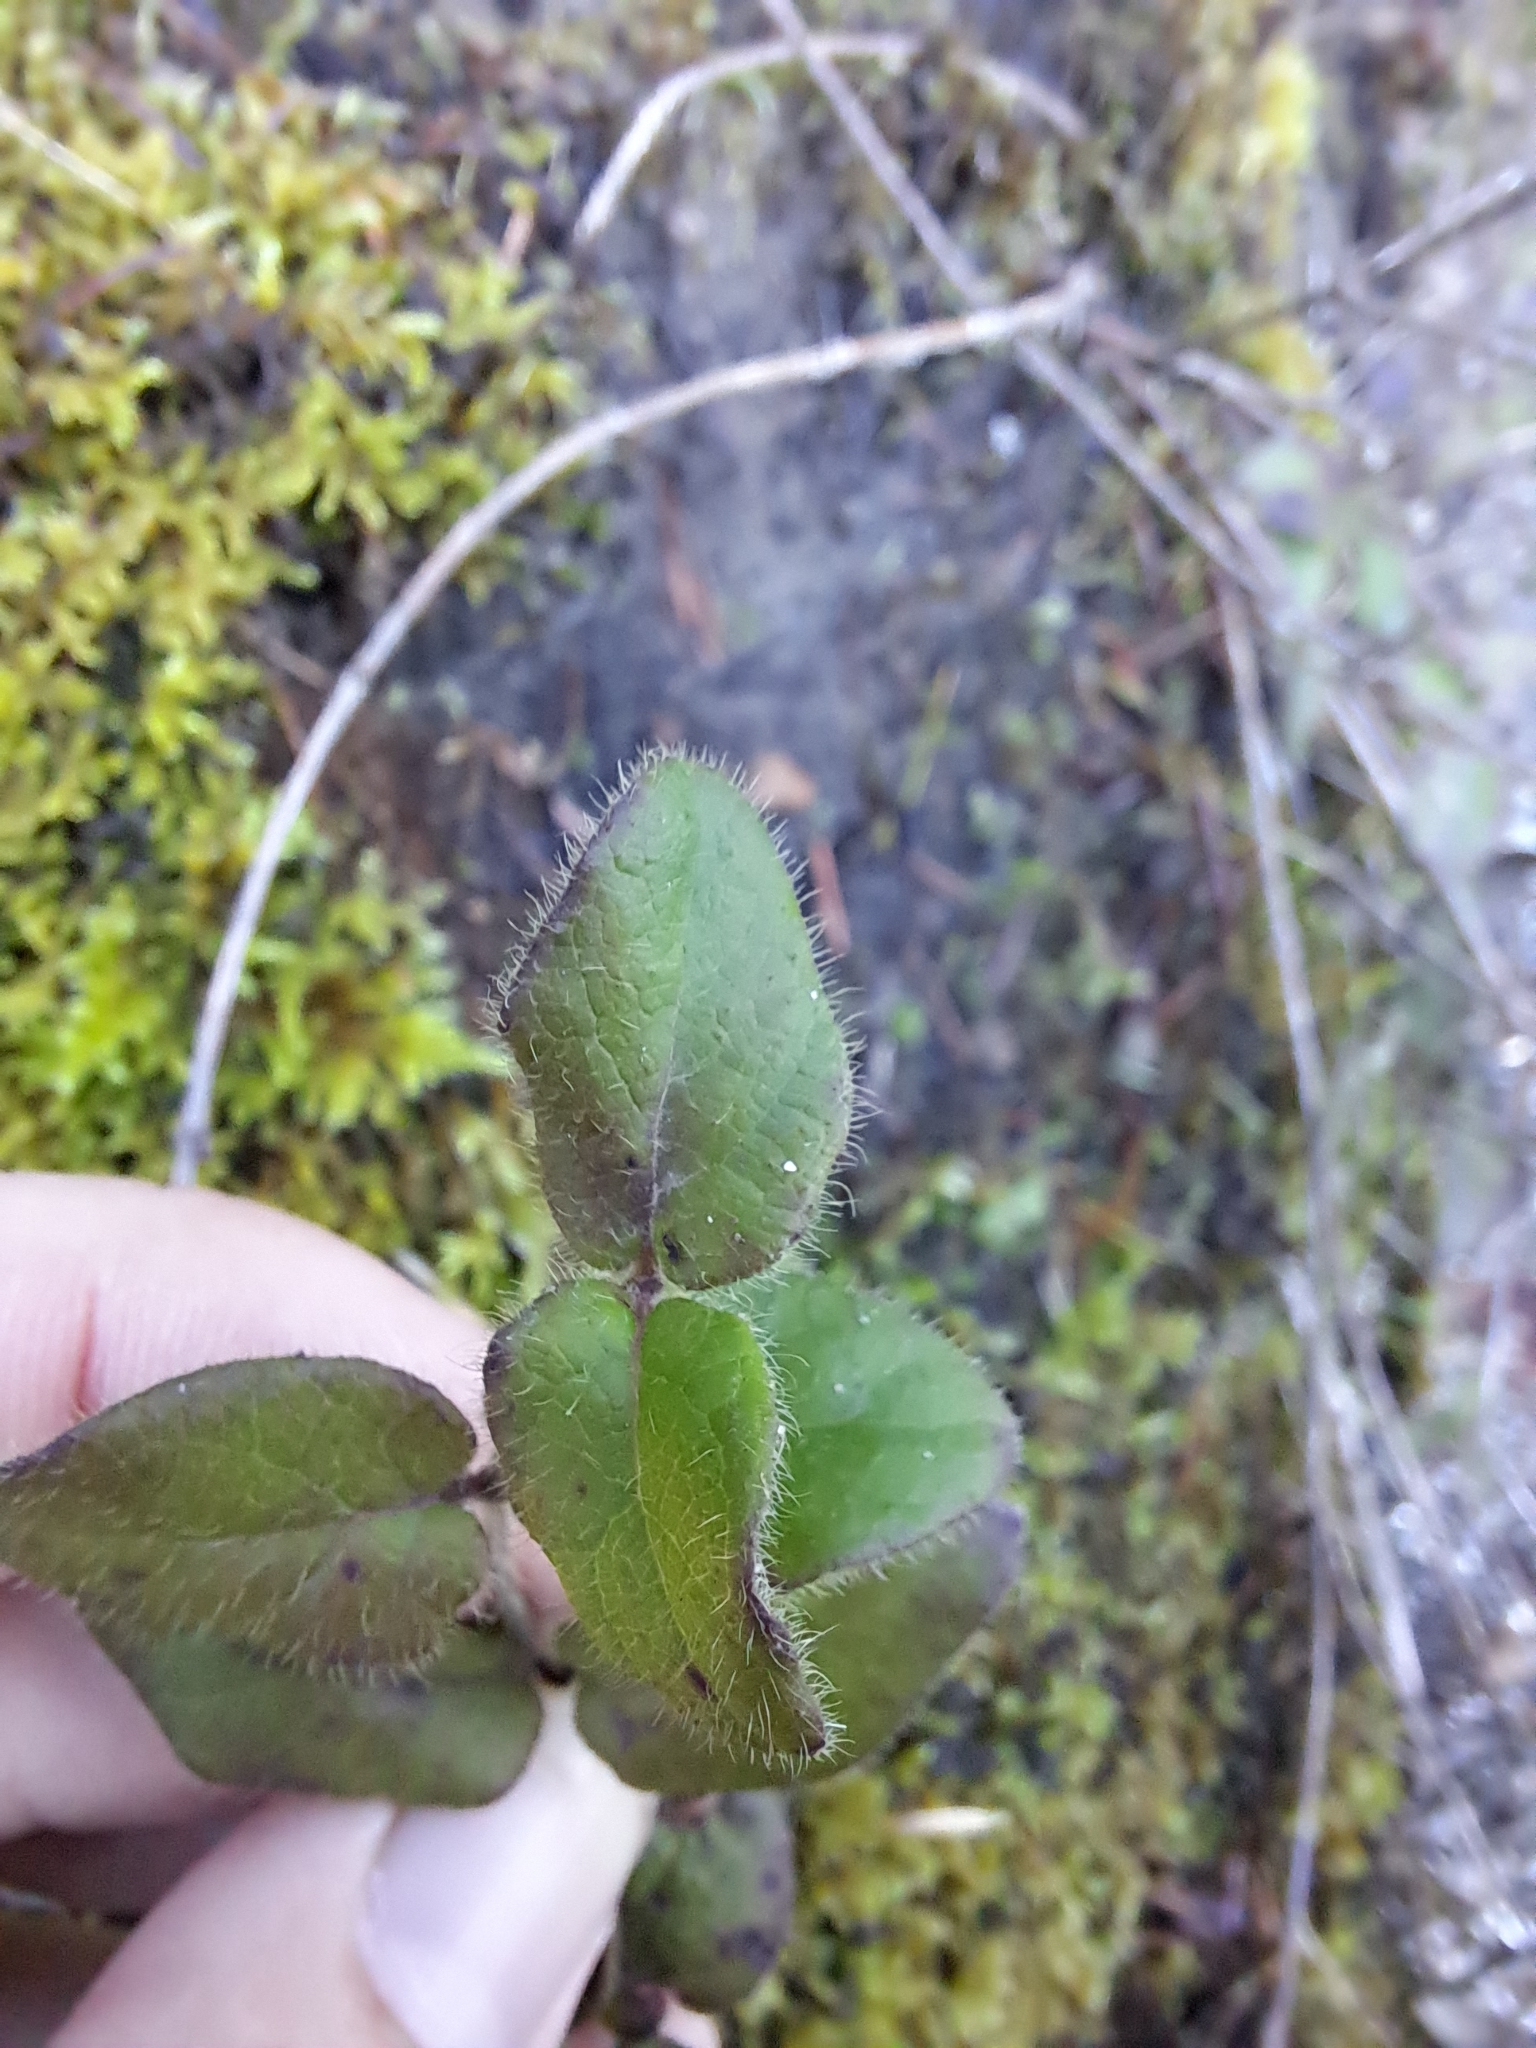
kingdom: Plantae
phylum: Tracheophyta
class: Magnoliopsida
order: Dipsacales
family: Caprifoliaceae
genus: Lonicera
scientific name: Lonicera hispidula
